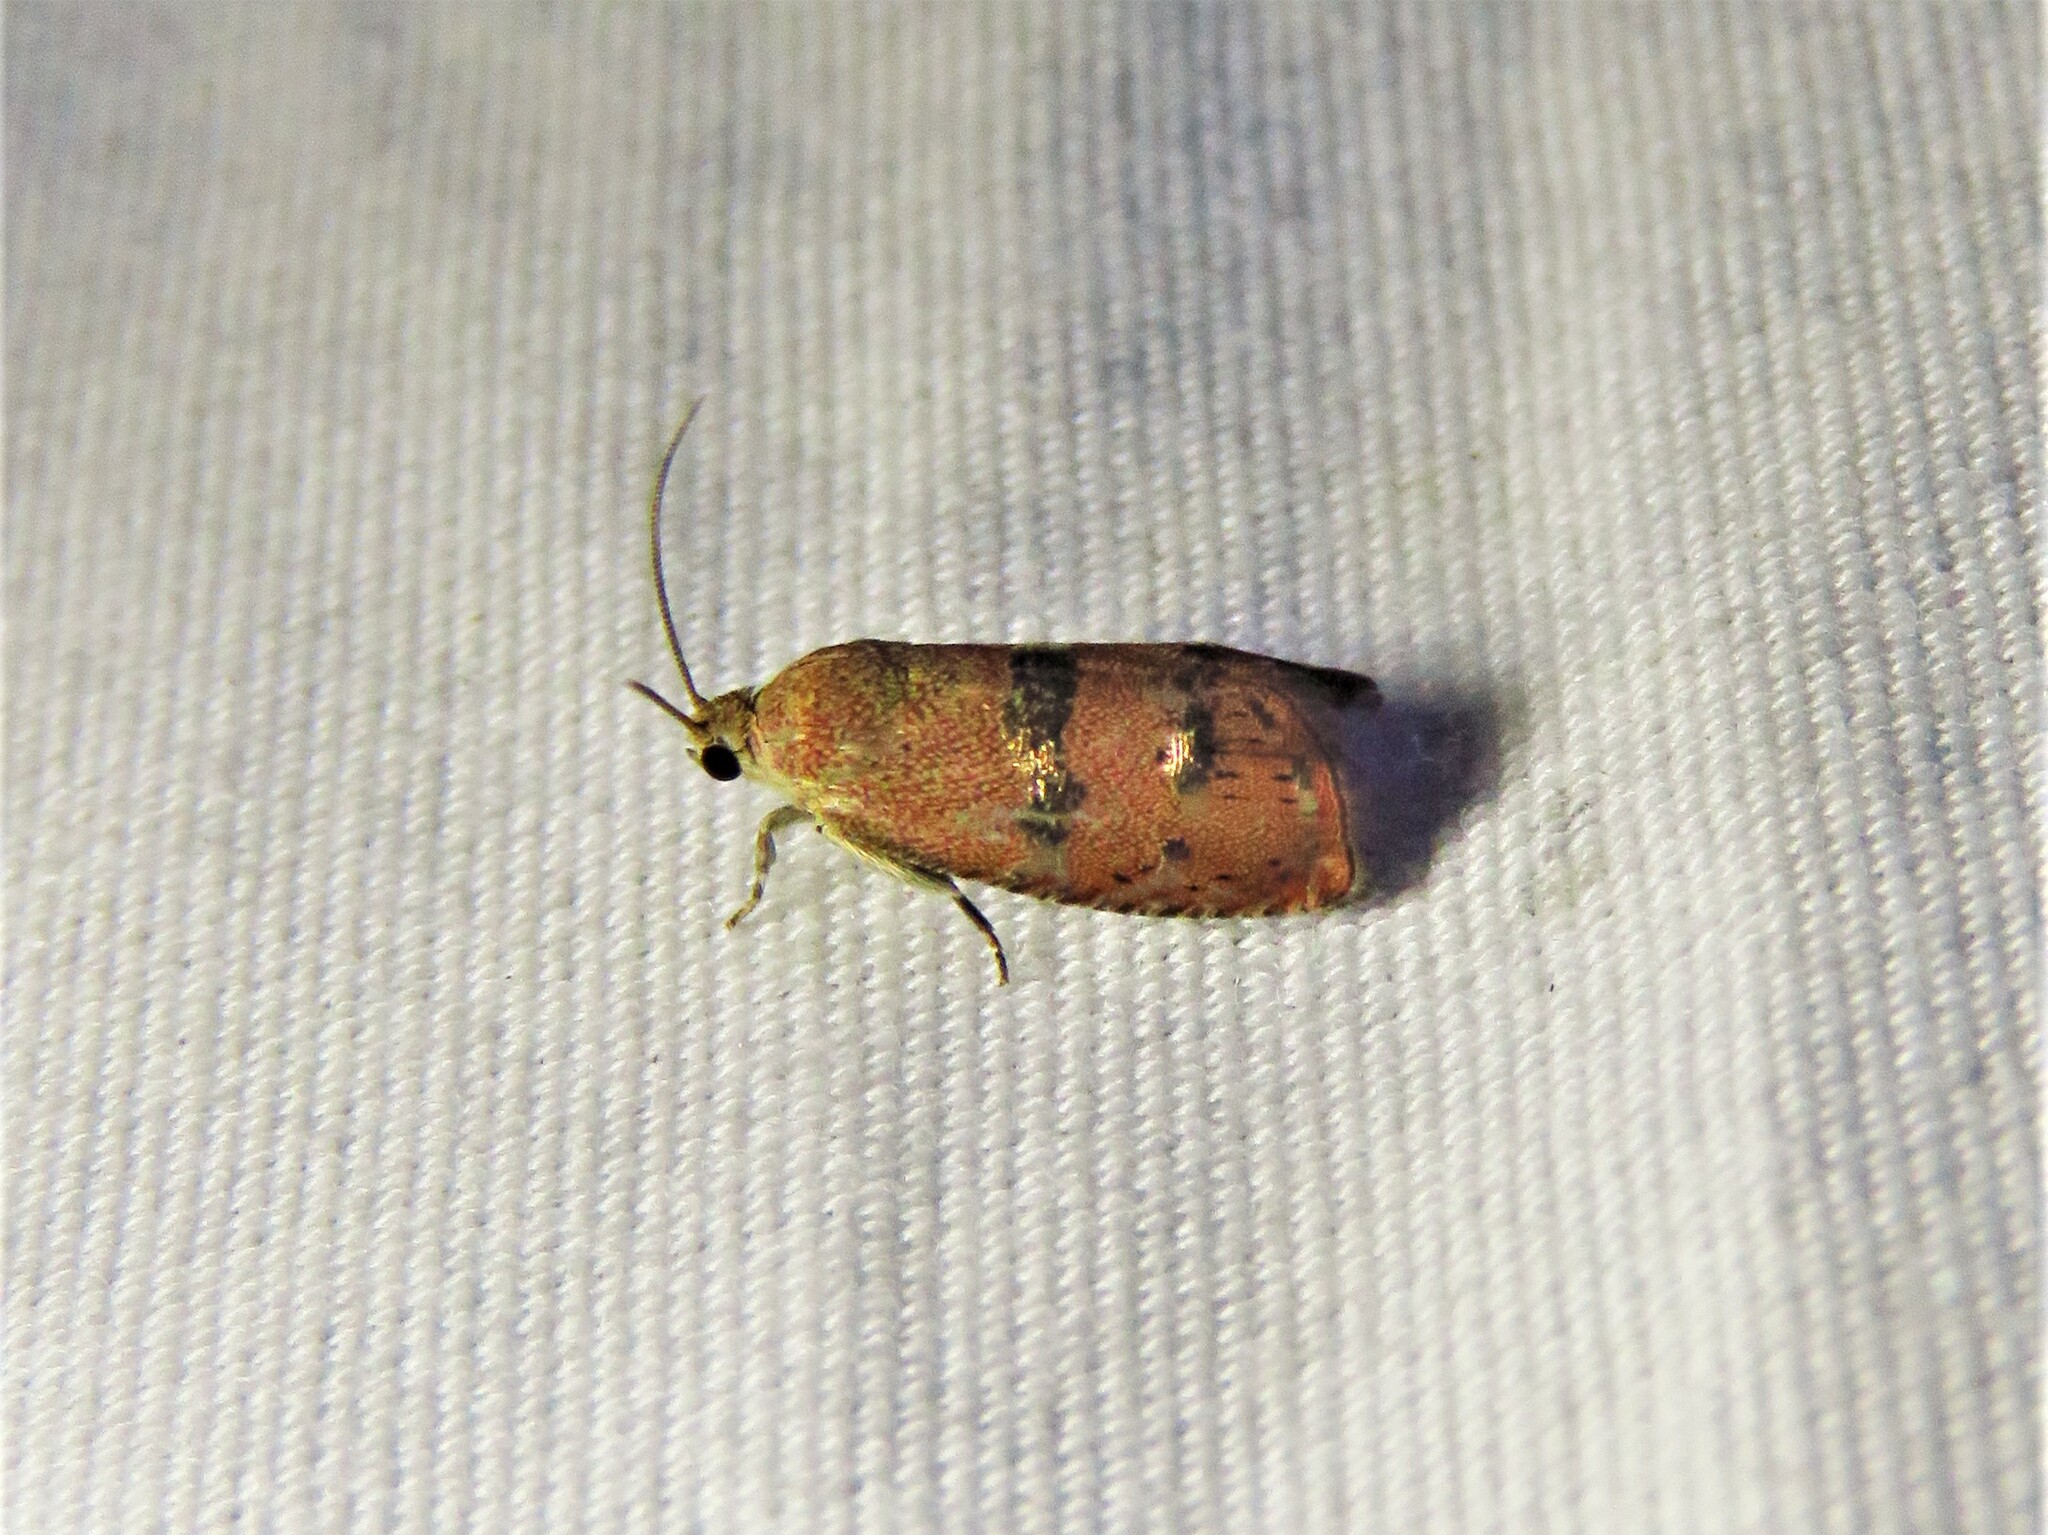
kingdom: Animalia
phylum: Arthropoda
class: Insecta
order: Lepidoptera
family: Tortricidae
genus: Cydia
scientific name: Cydia latiferreana
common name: Filbertworm moth
